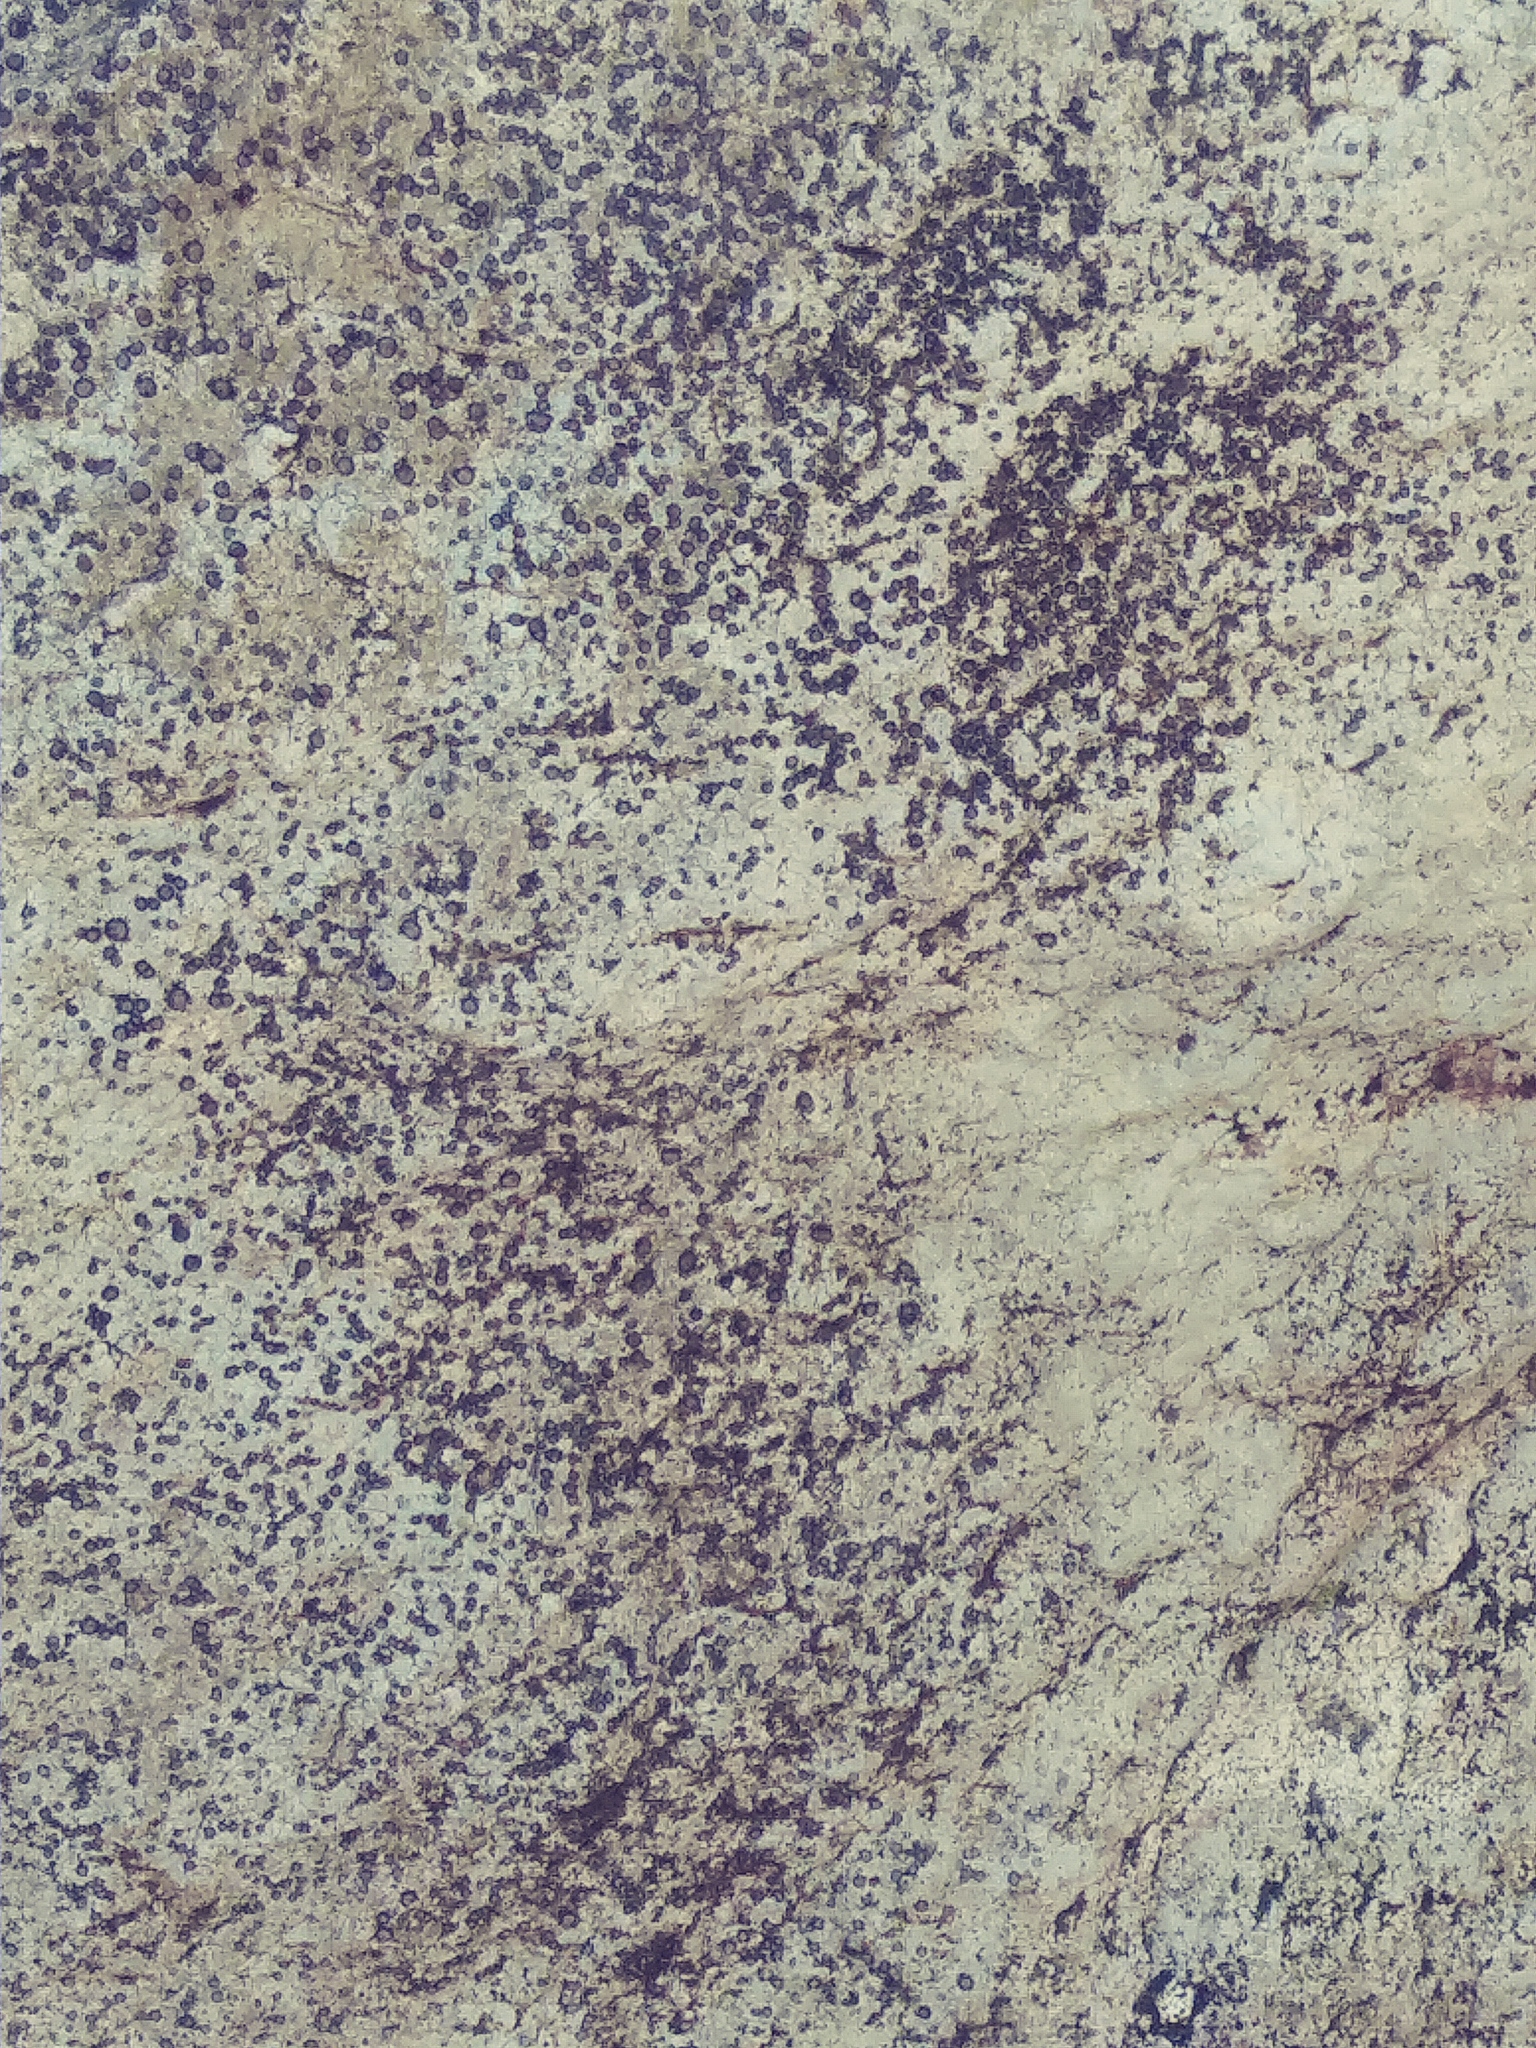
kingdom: Fungi
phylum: Ascomycota
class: Lecanoromycetes
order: Lecideales
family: Lecideaceae
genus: Porpidia
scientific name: Porpidia albocaerulescens
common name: Smokey-eyed boulder lichen
